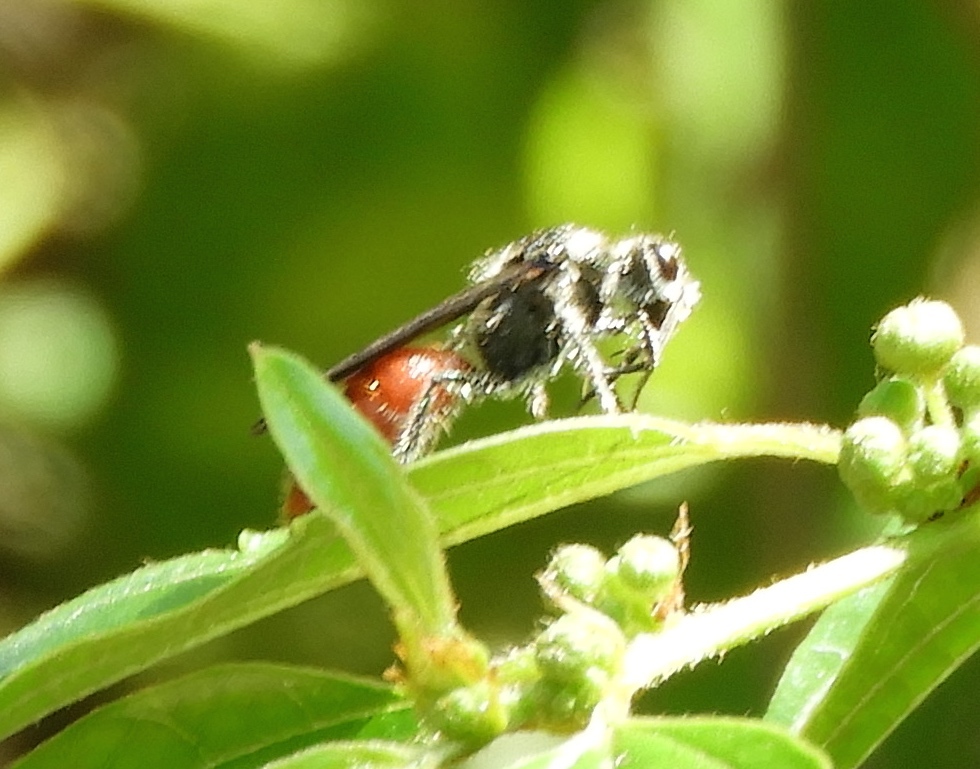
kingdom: Animalia
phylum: Arthropoda
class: Insecta
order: Hymenoptera
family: Mutillidae
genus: Timulla
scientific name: Timulla
